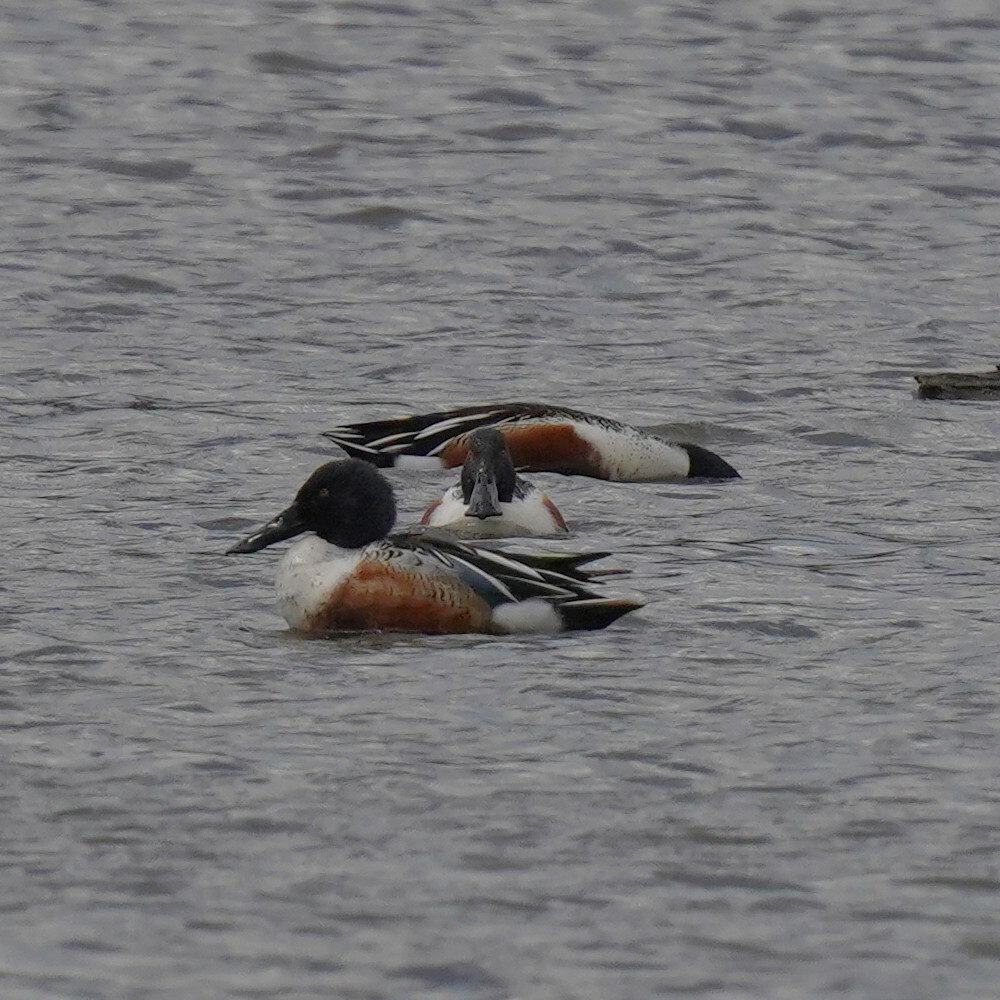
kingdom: Animalia
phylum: Chordata
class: Aves
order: Anseriformes
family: Anatidae
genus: Spatula
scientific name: Spatula clypeata
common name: Northern shoveler
